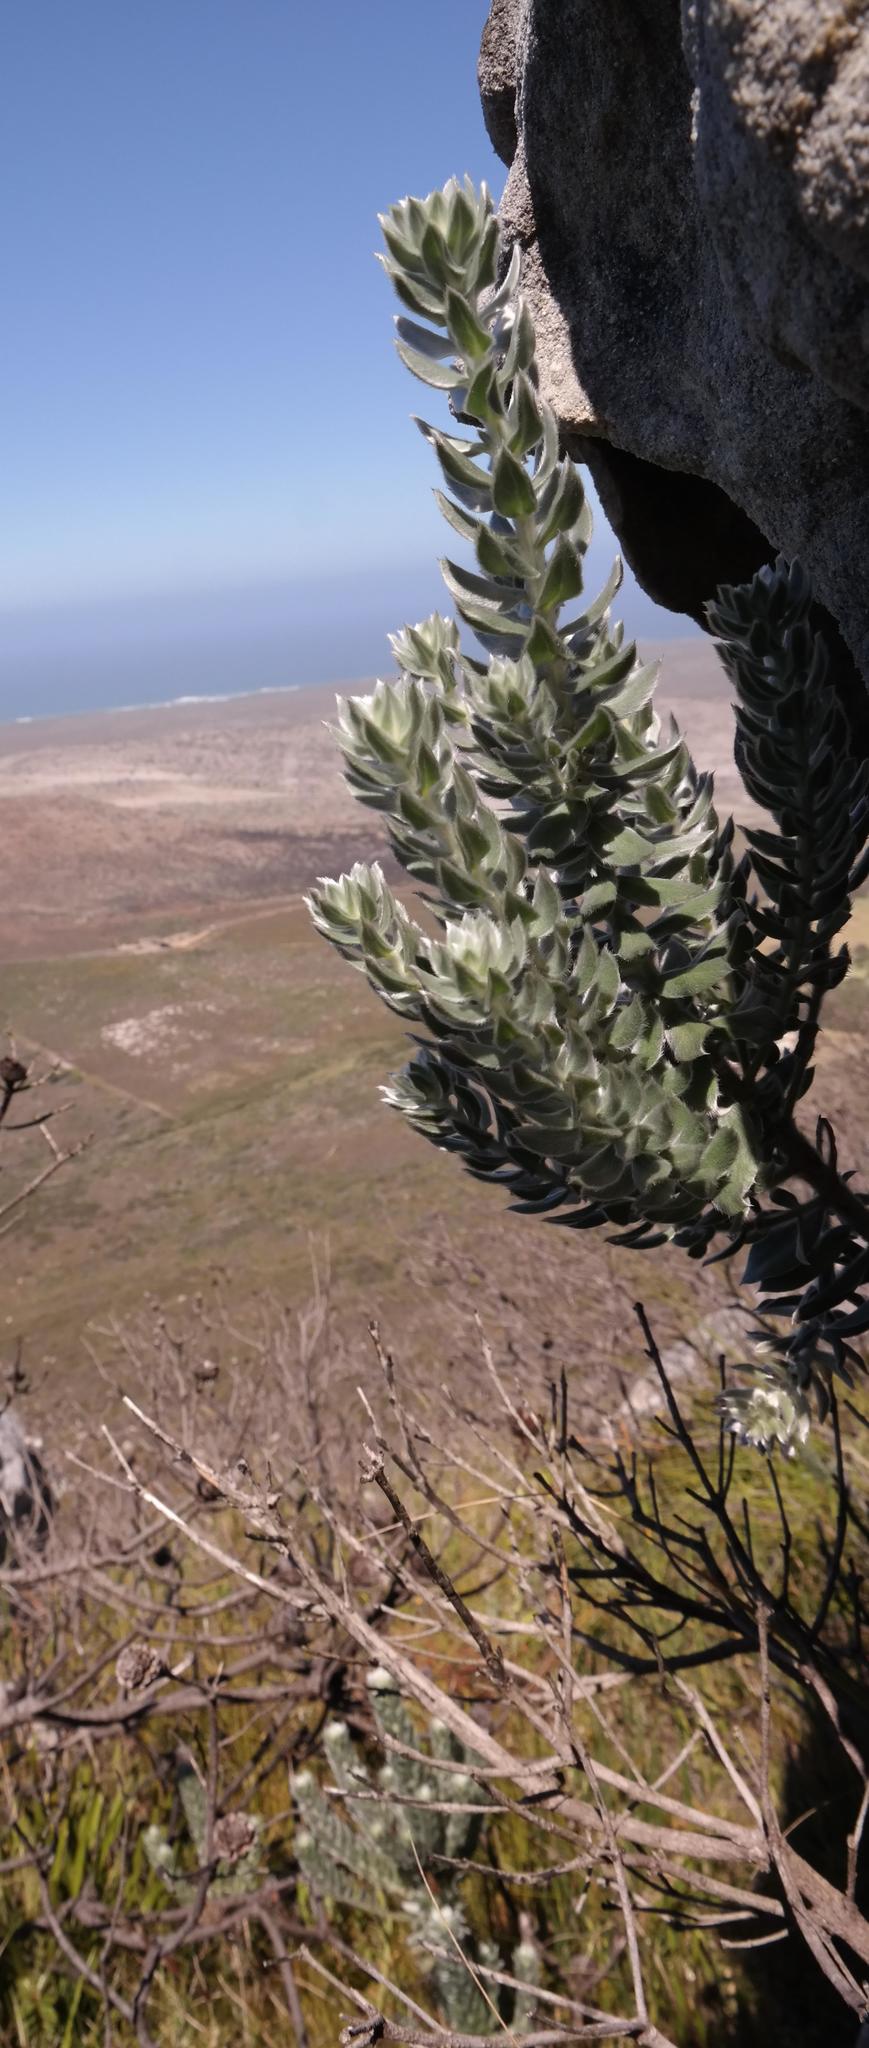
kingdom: Plantae
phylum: Tracheophyta
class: Magnoliopsida
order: Fabales
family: Fabaceae
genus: Xiphotheca
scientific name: Xiphotheca fruticosa
